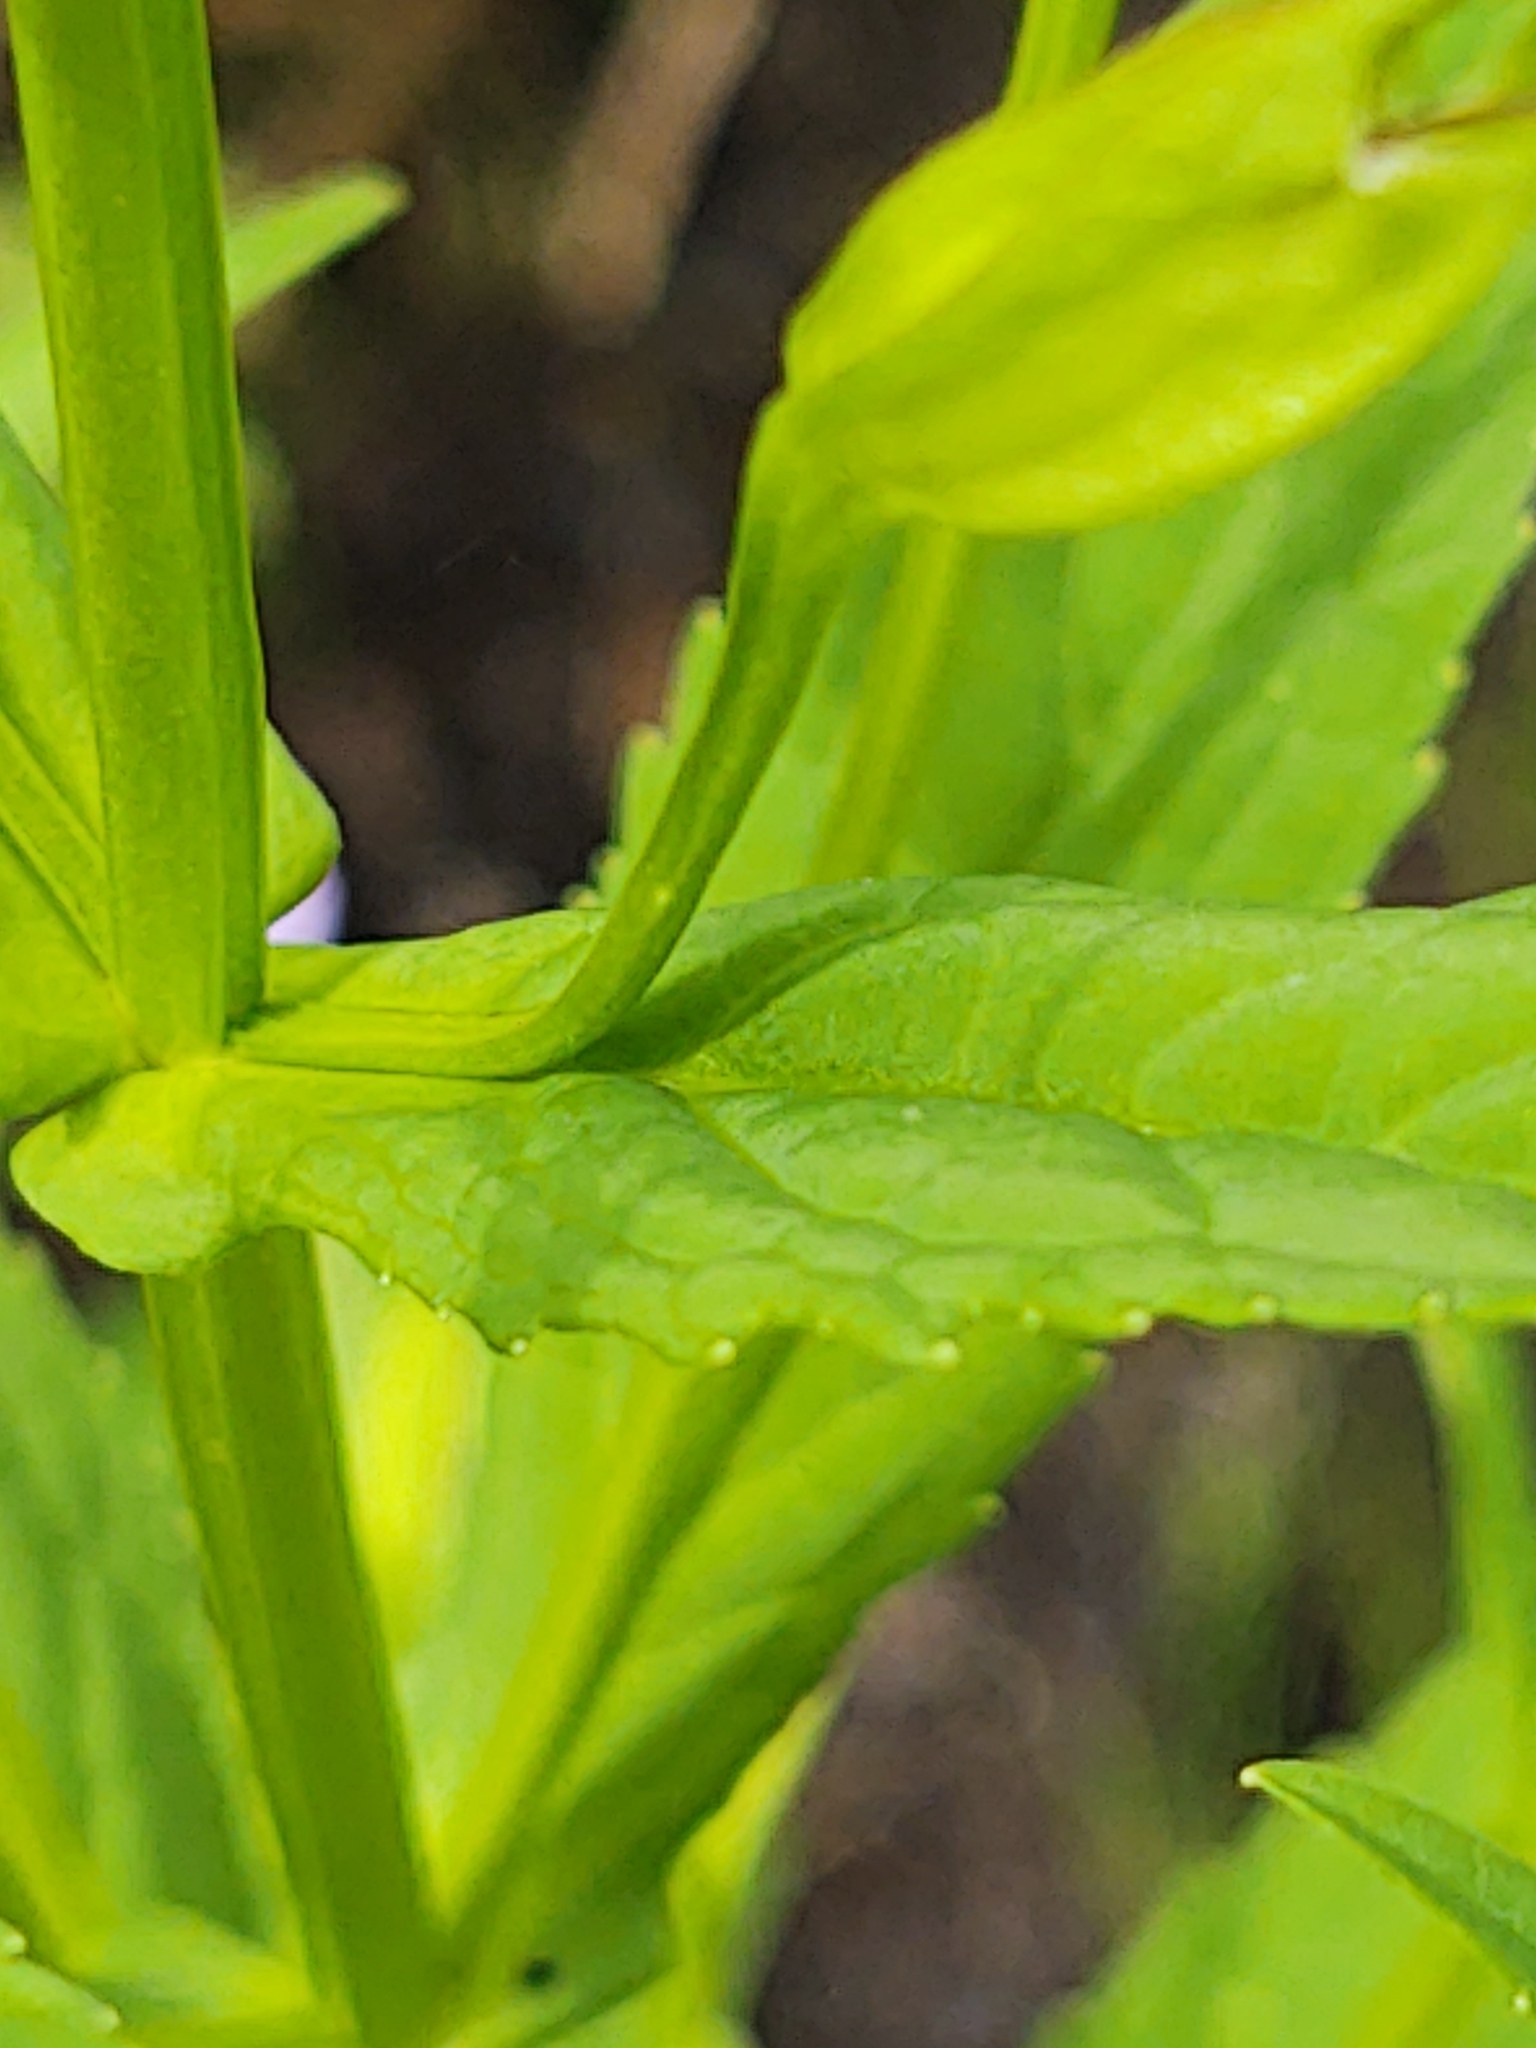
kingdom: Plantae
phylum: Tracheophyta
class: Magnoliopsida
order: Lamiales
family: Phrymaceae
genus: Mimulus
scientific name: Mimulus ringens
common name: Allegheny monkeyflower
